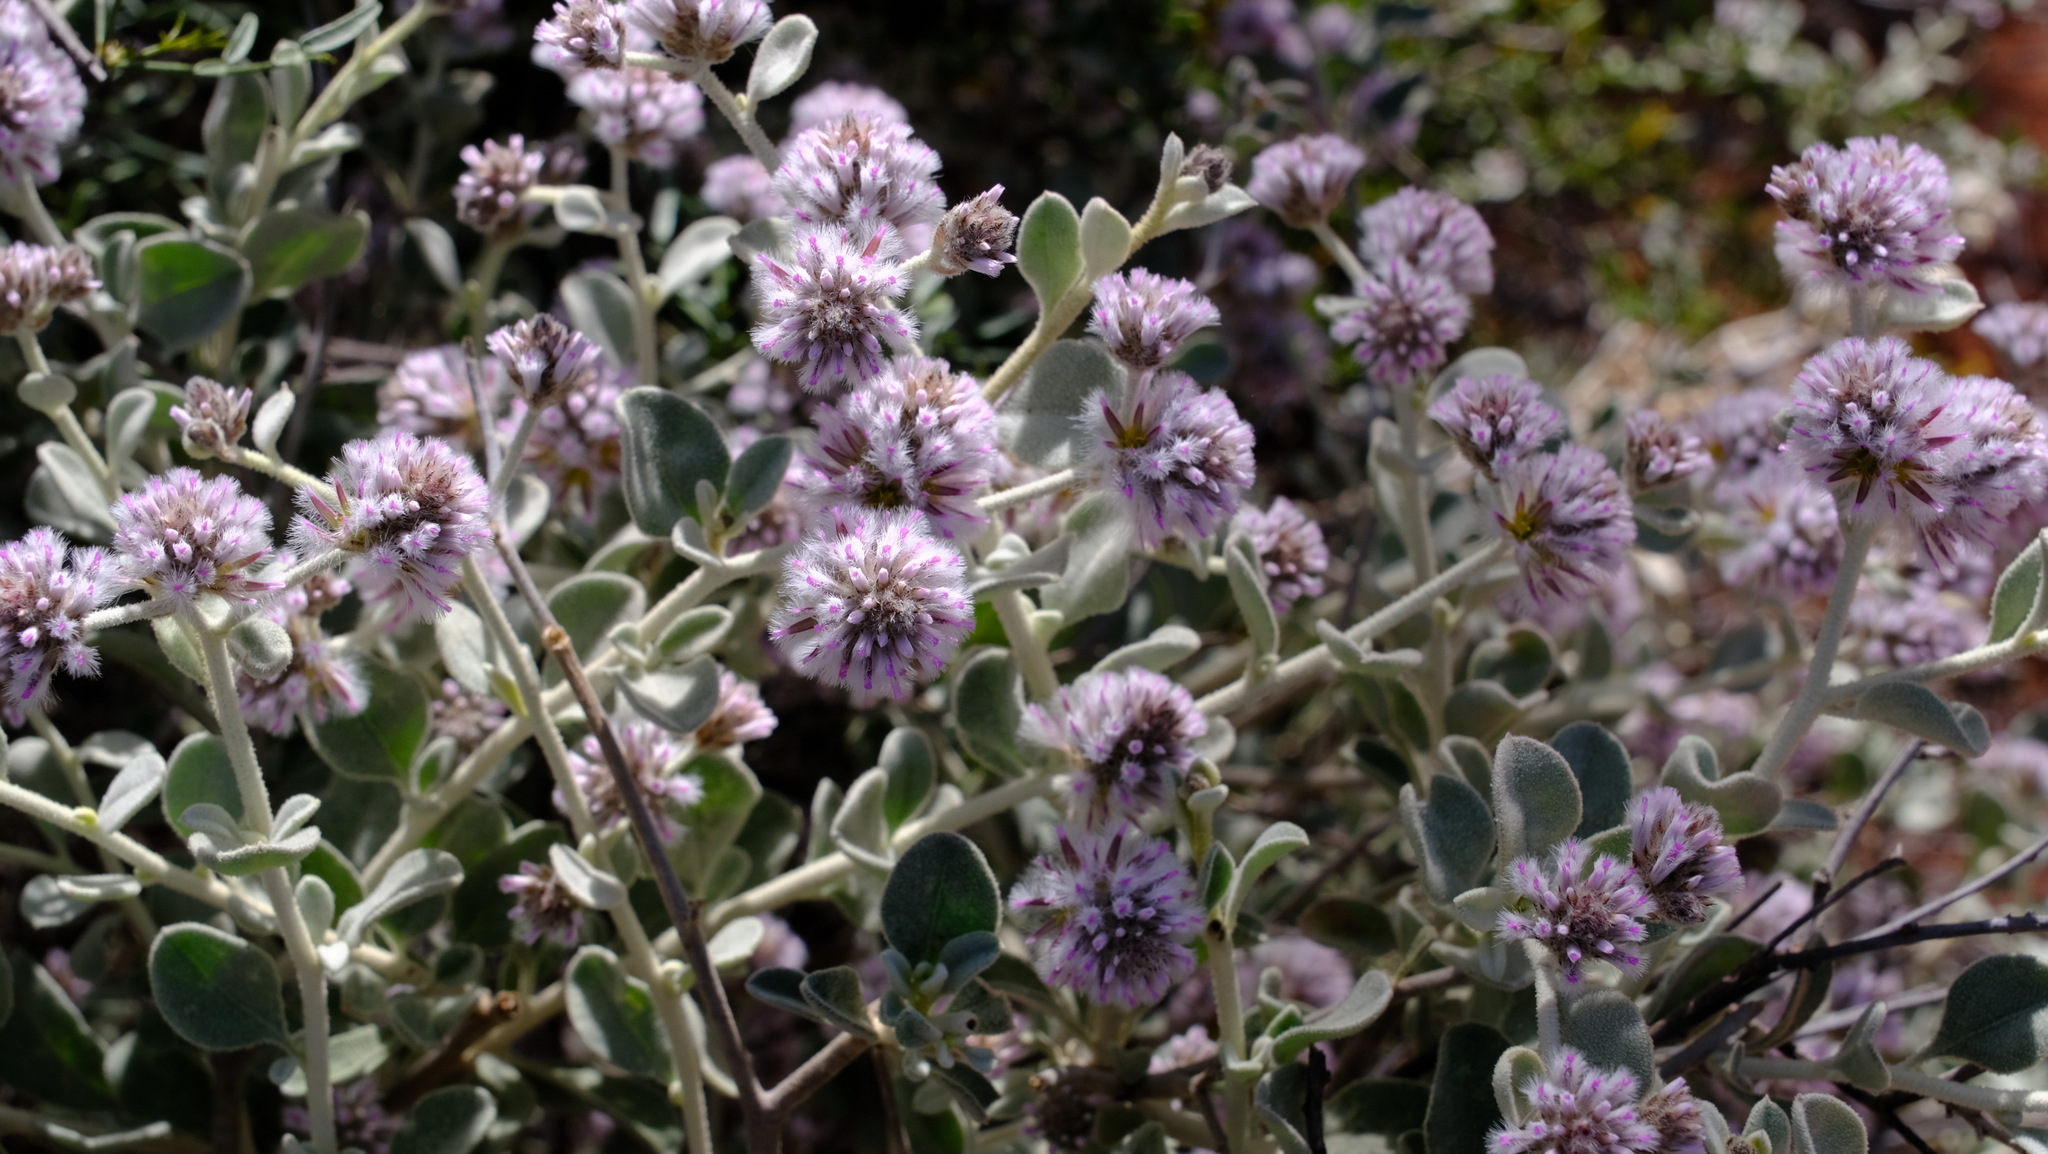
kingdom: Plantae
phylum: Tracheophyta
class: Magnoliopsida
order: Caryophyllales
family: Amaranthaceae
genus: Ptilotus
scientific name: Ptilotus obovatus
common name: Cottonbush
